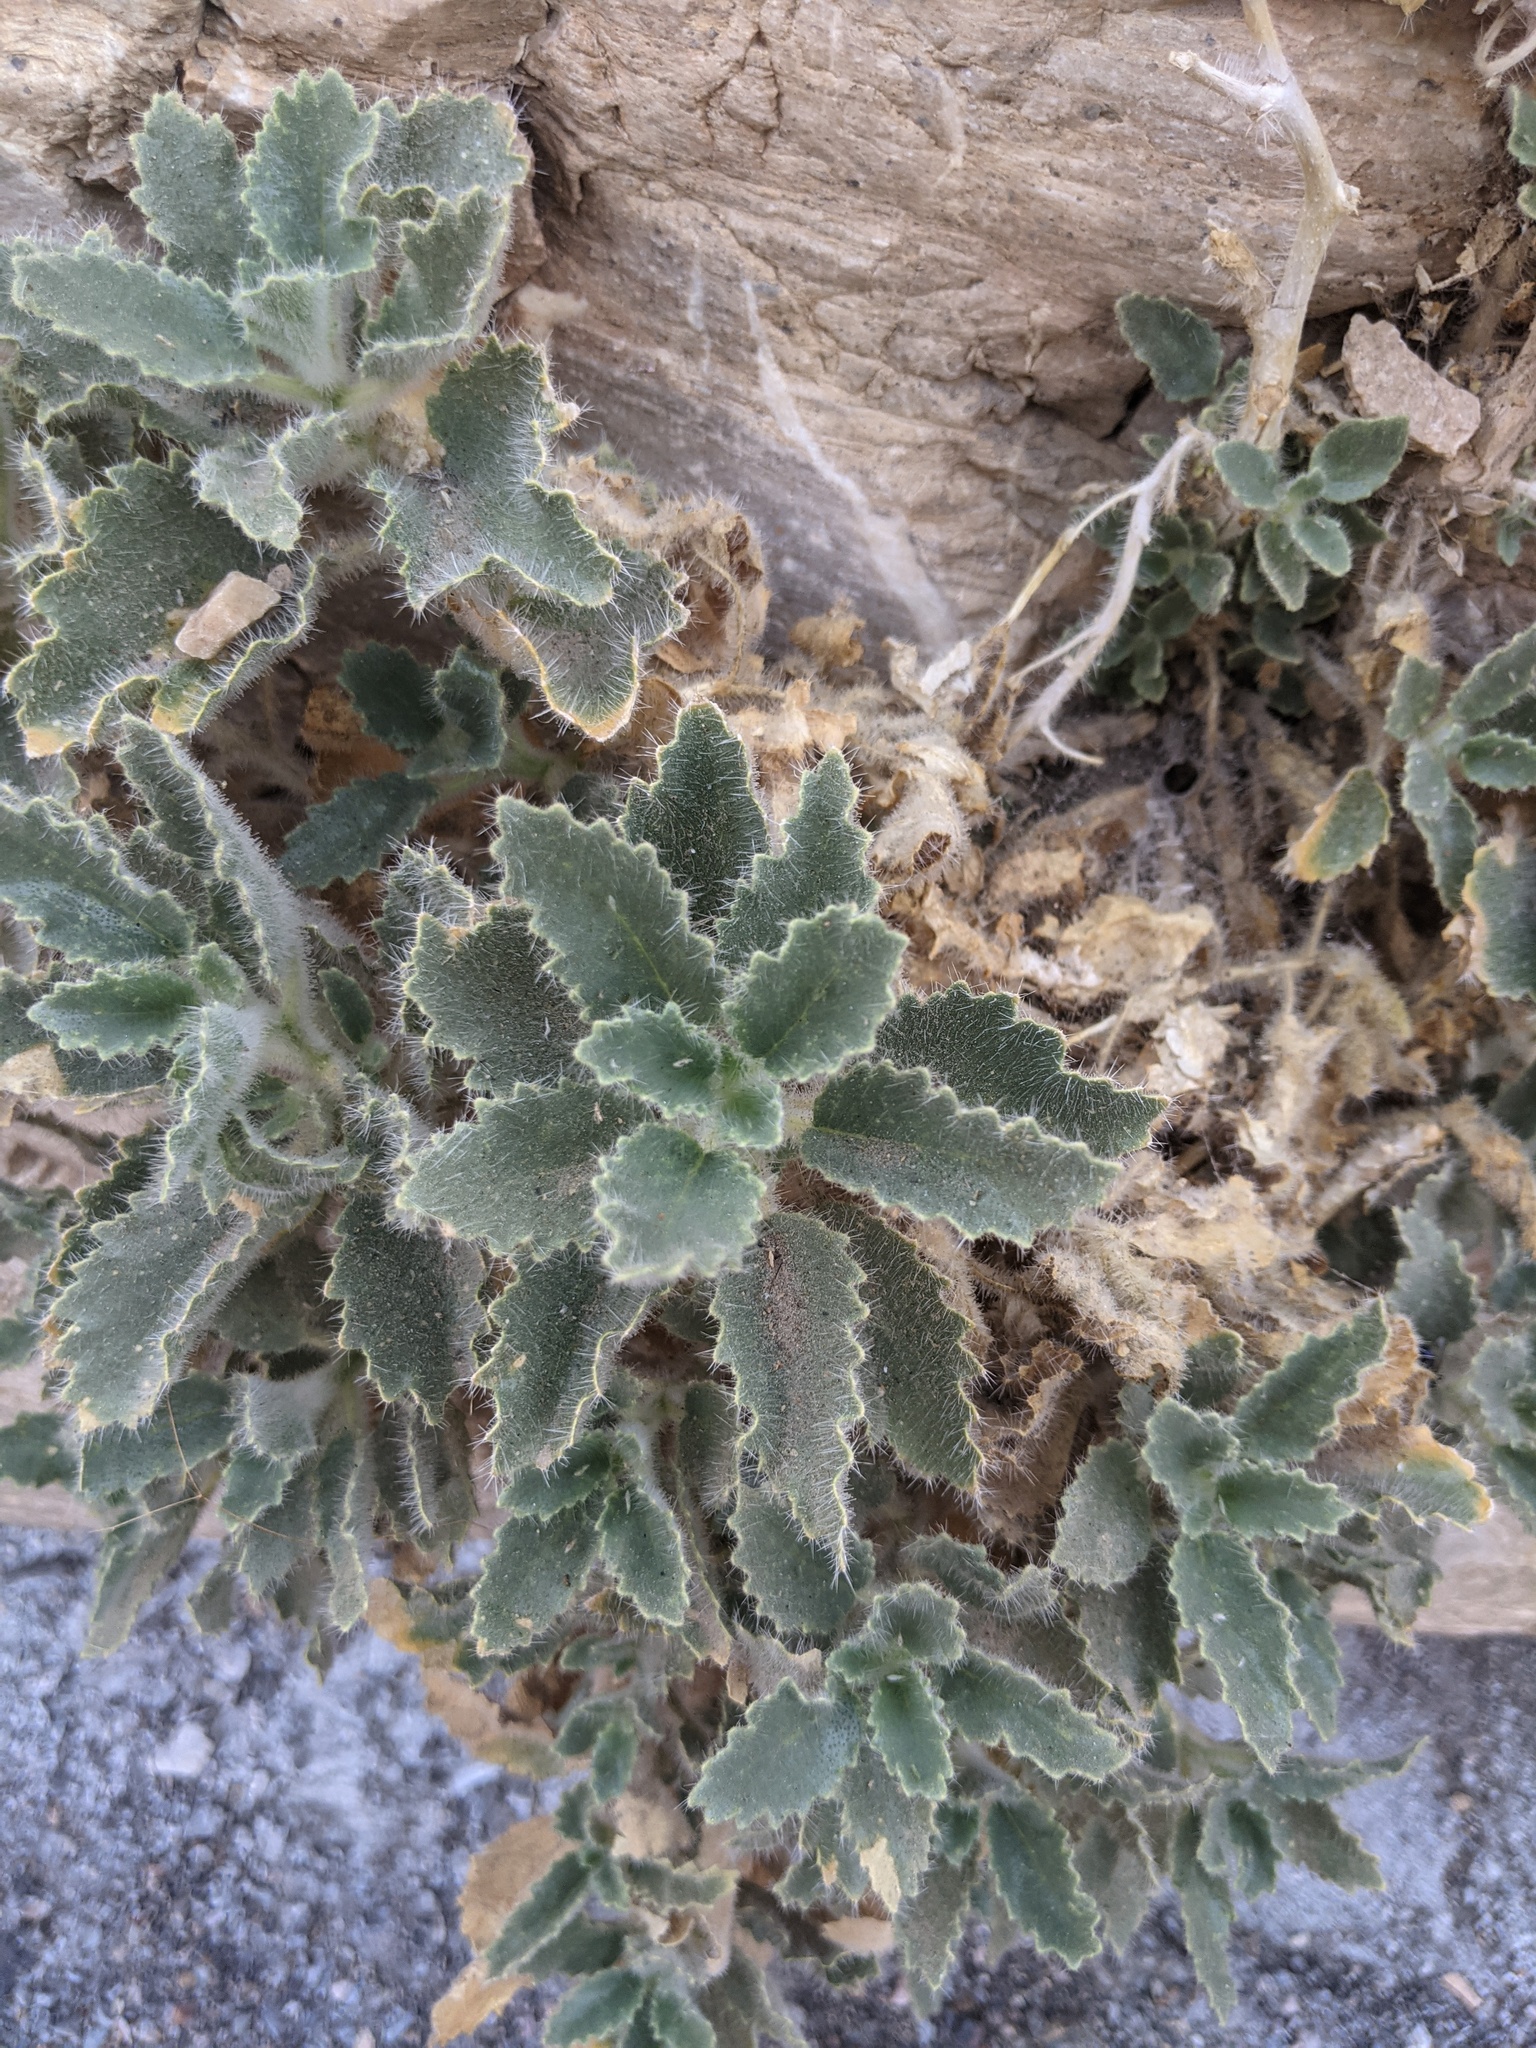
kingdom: Plantae
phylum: Tracheophyta
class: Magnoliopsida
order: Cornales
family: Loasaceae
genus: Eucnide
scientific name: Eucnide urens
